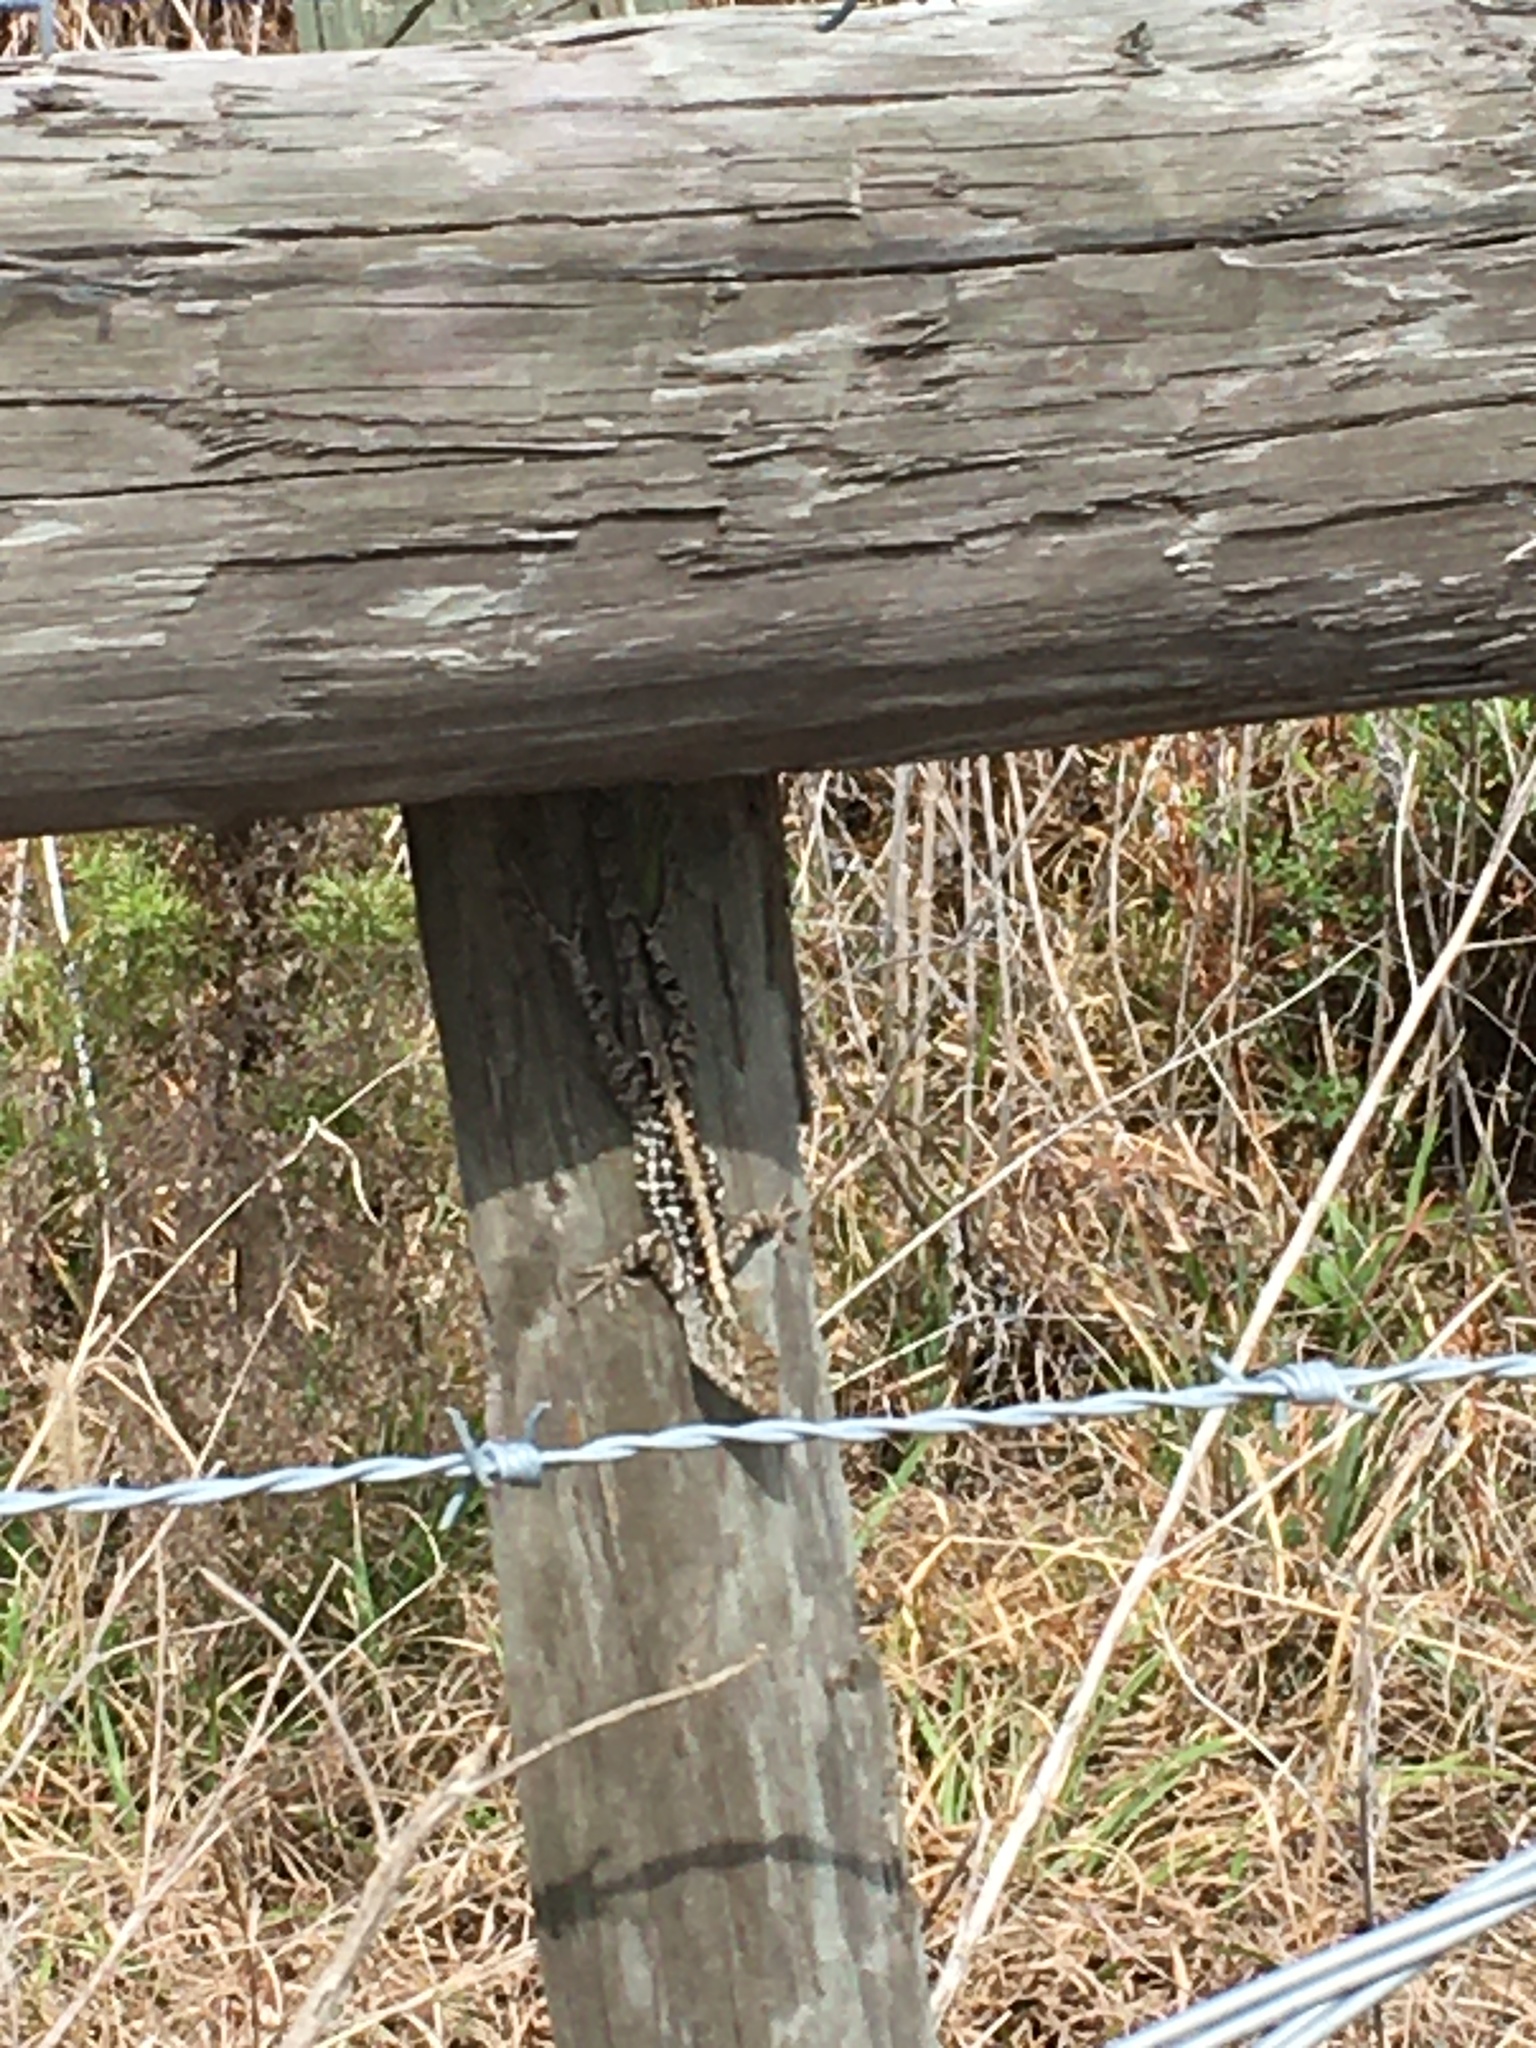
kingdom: Animalia
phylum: Chordata
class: Squamata
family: Dactyloidae
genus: Anolis
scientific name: Anolis sagrei
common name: Brown anole
